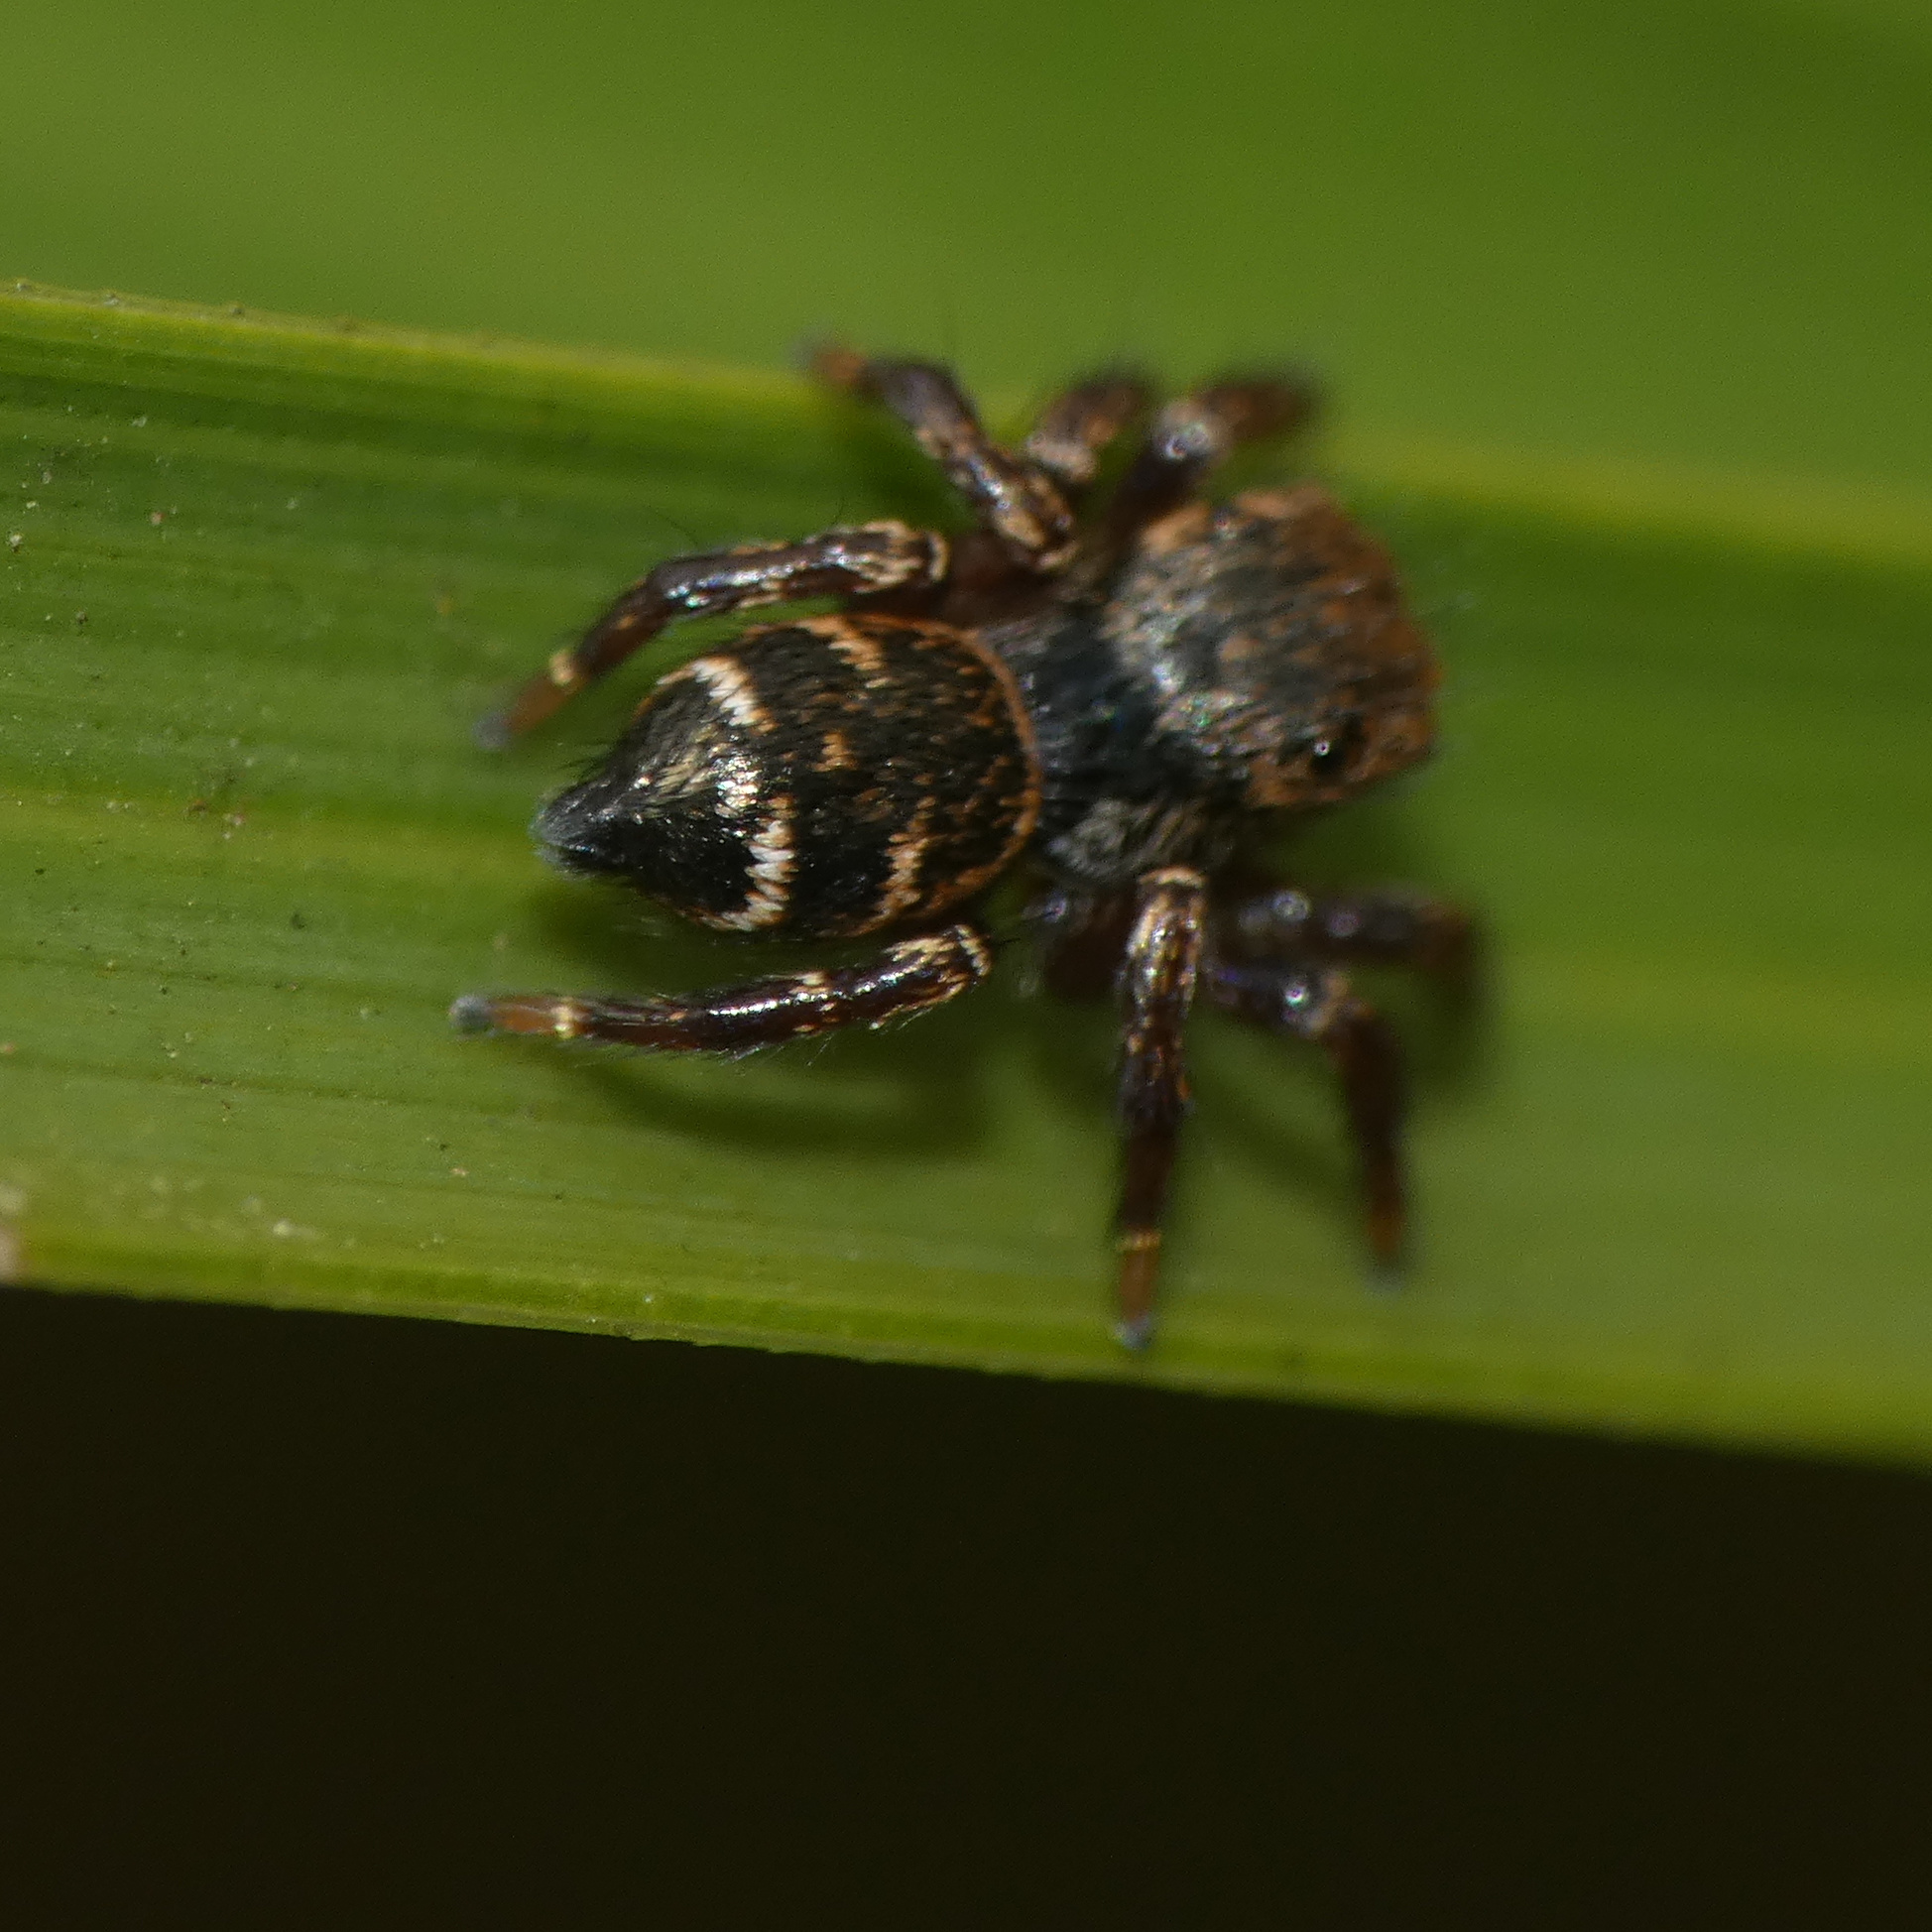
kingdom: Animalia
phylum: Arthropoda
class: Arachnida
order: Araneae
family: Salticidae
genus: Baryphas
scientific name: Baryphas ahenus
